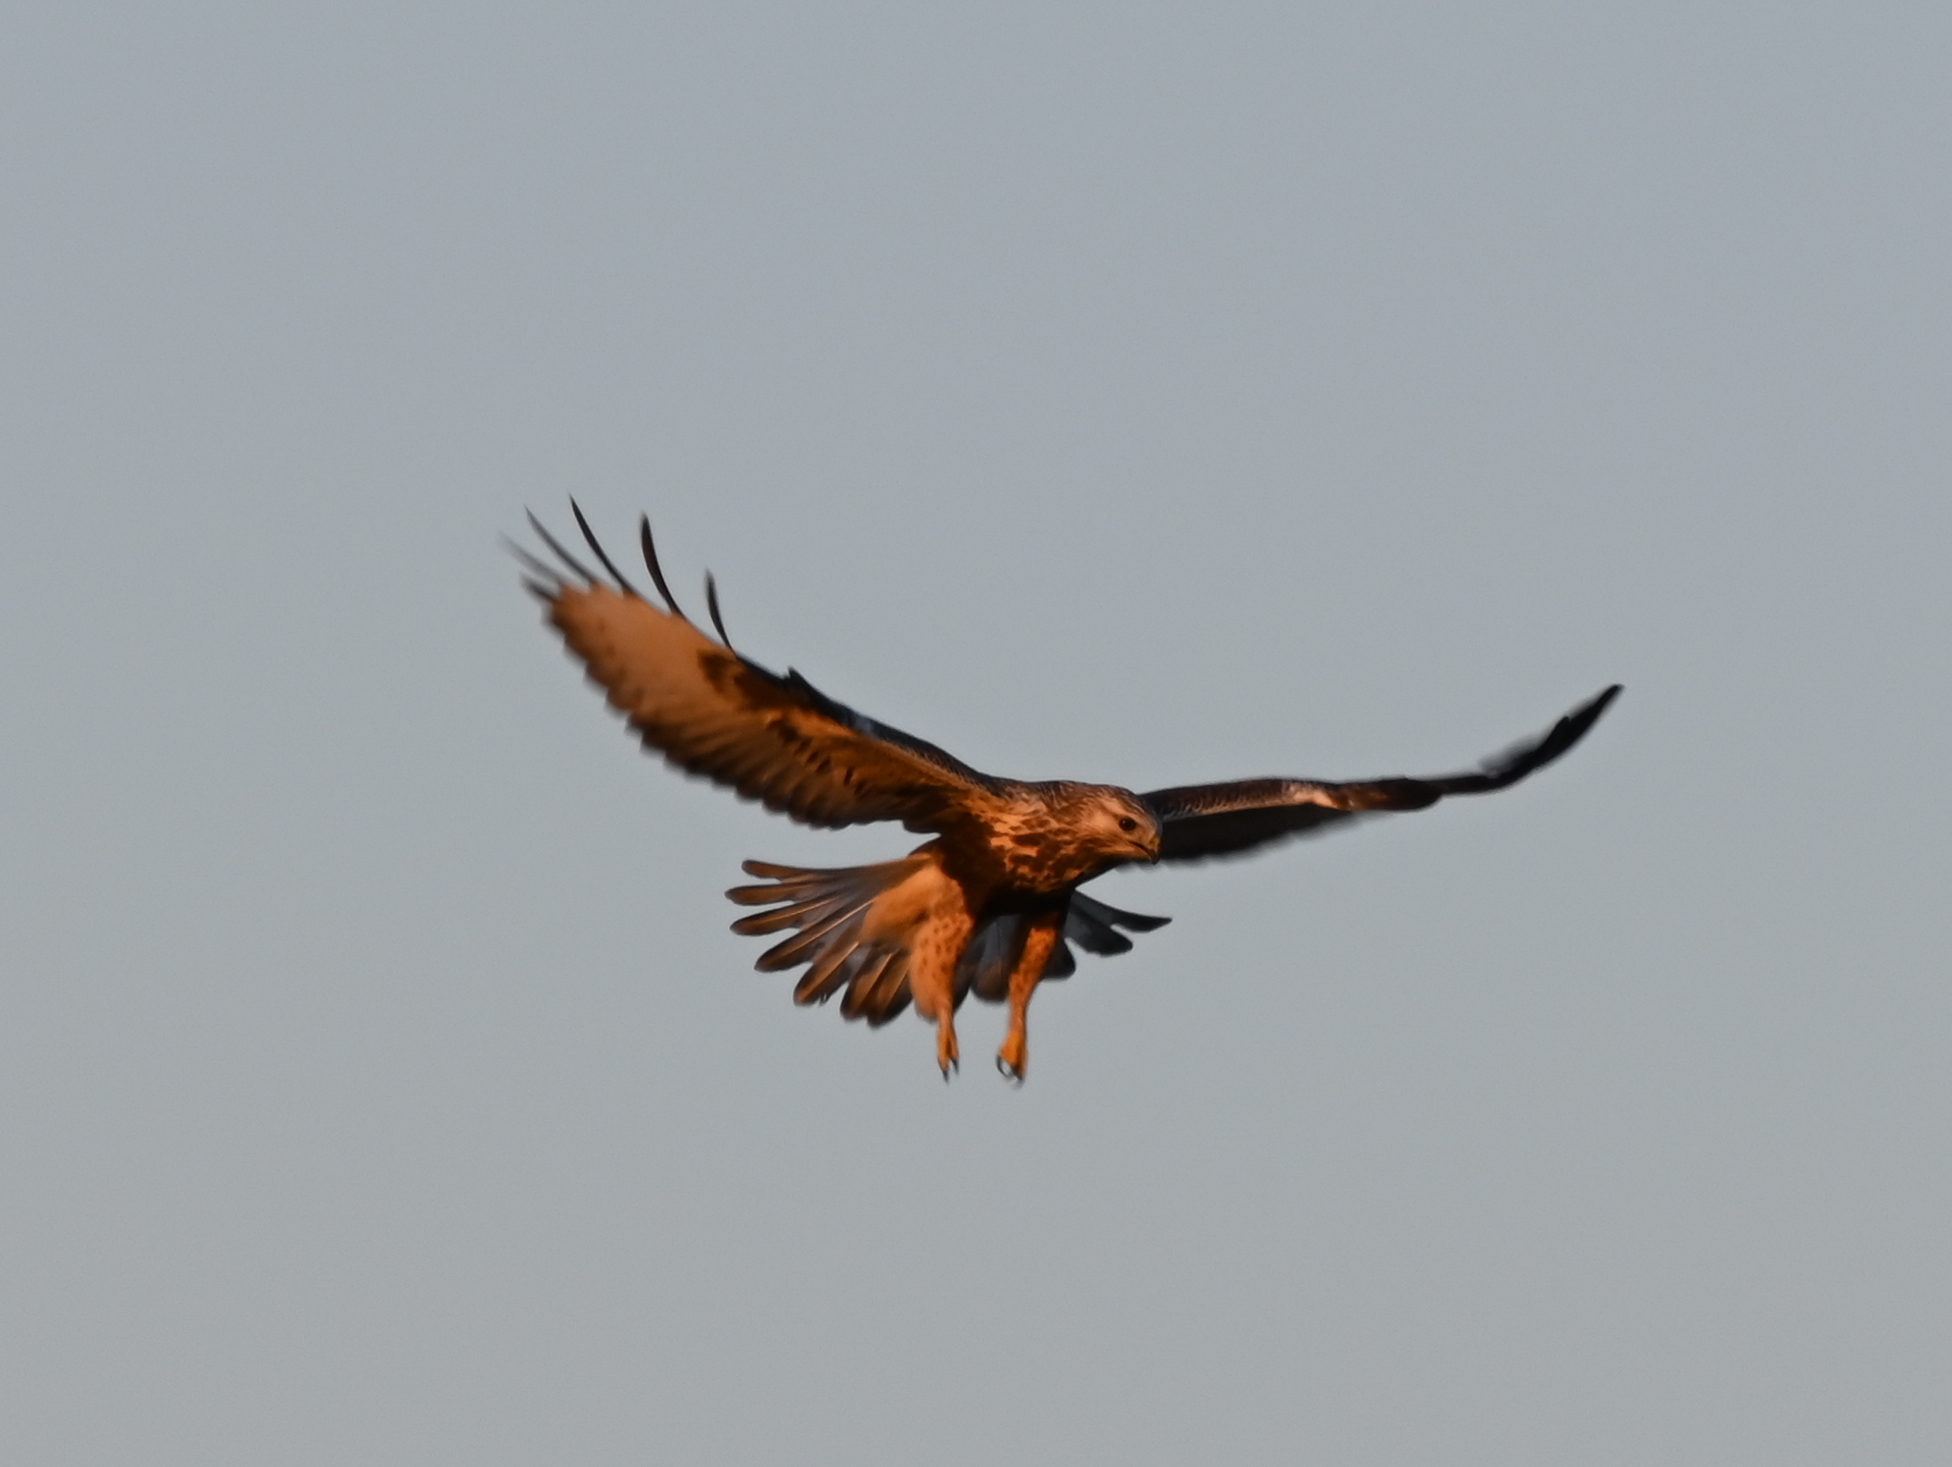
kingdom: Animalia
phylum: Chordata
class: Aves
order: Accipitriformes
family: Accipitridae
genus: Buteo
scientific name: Buteo lagopus
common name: Rough-legged buzzard
